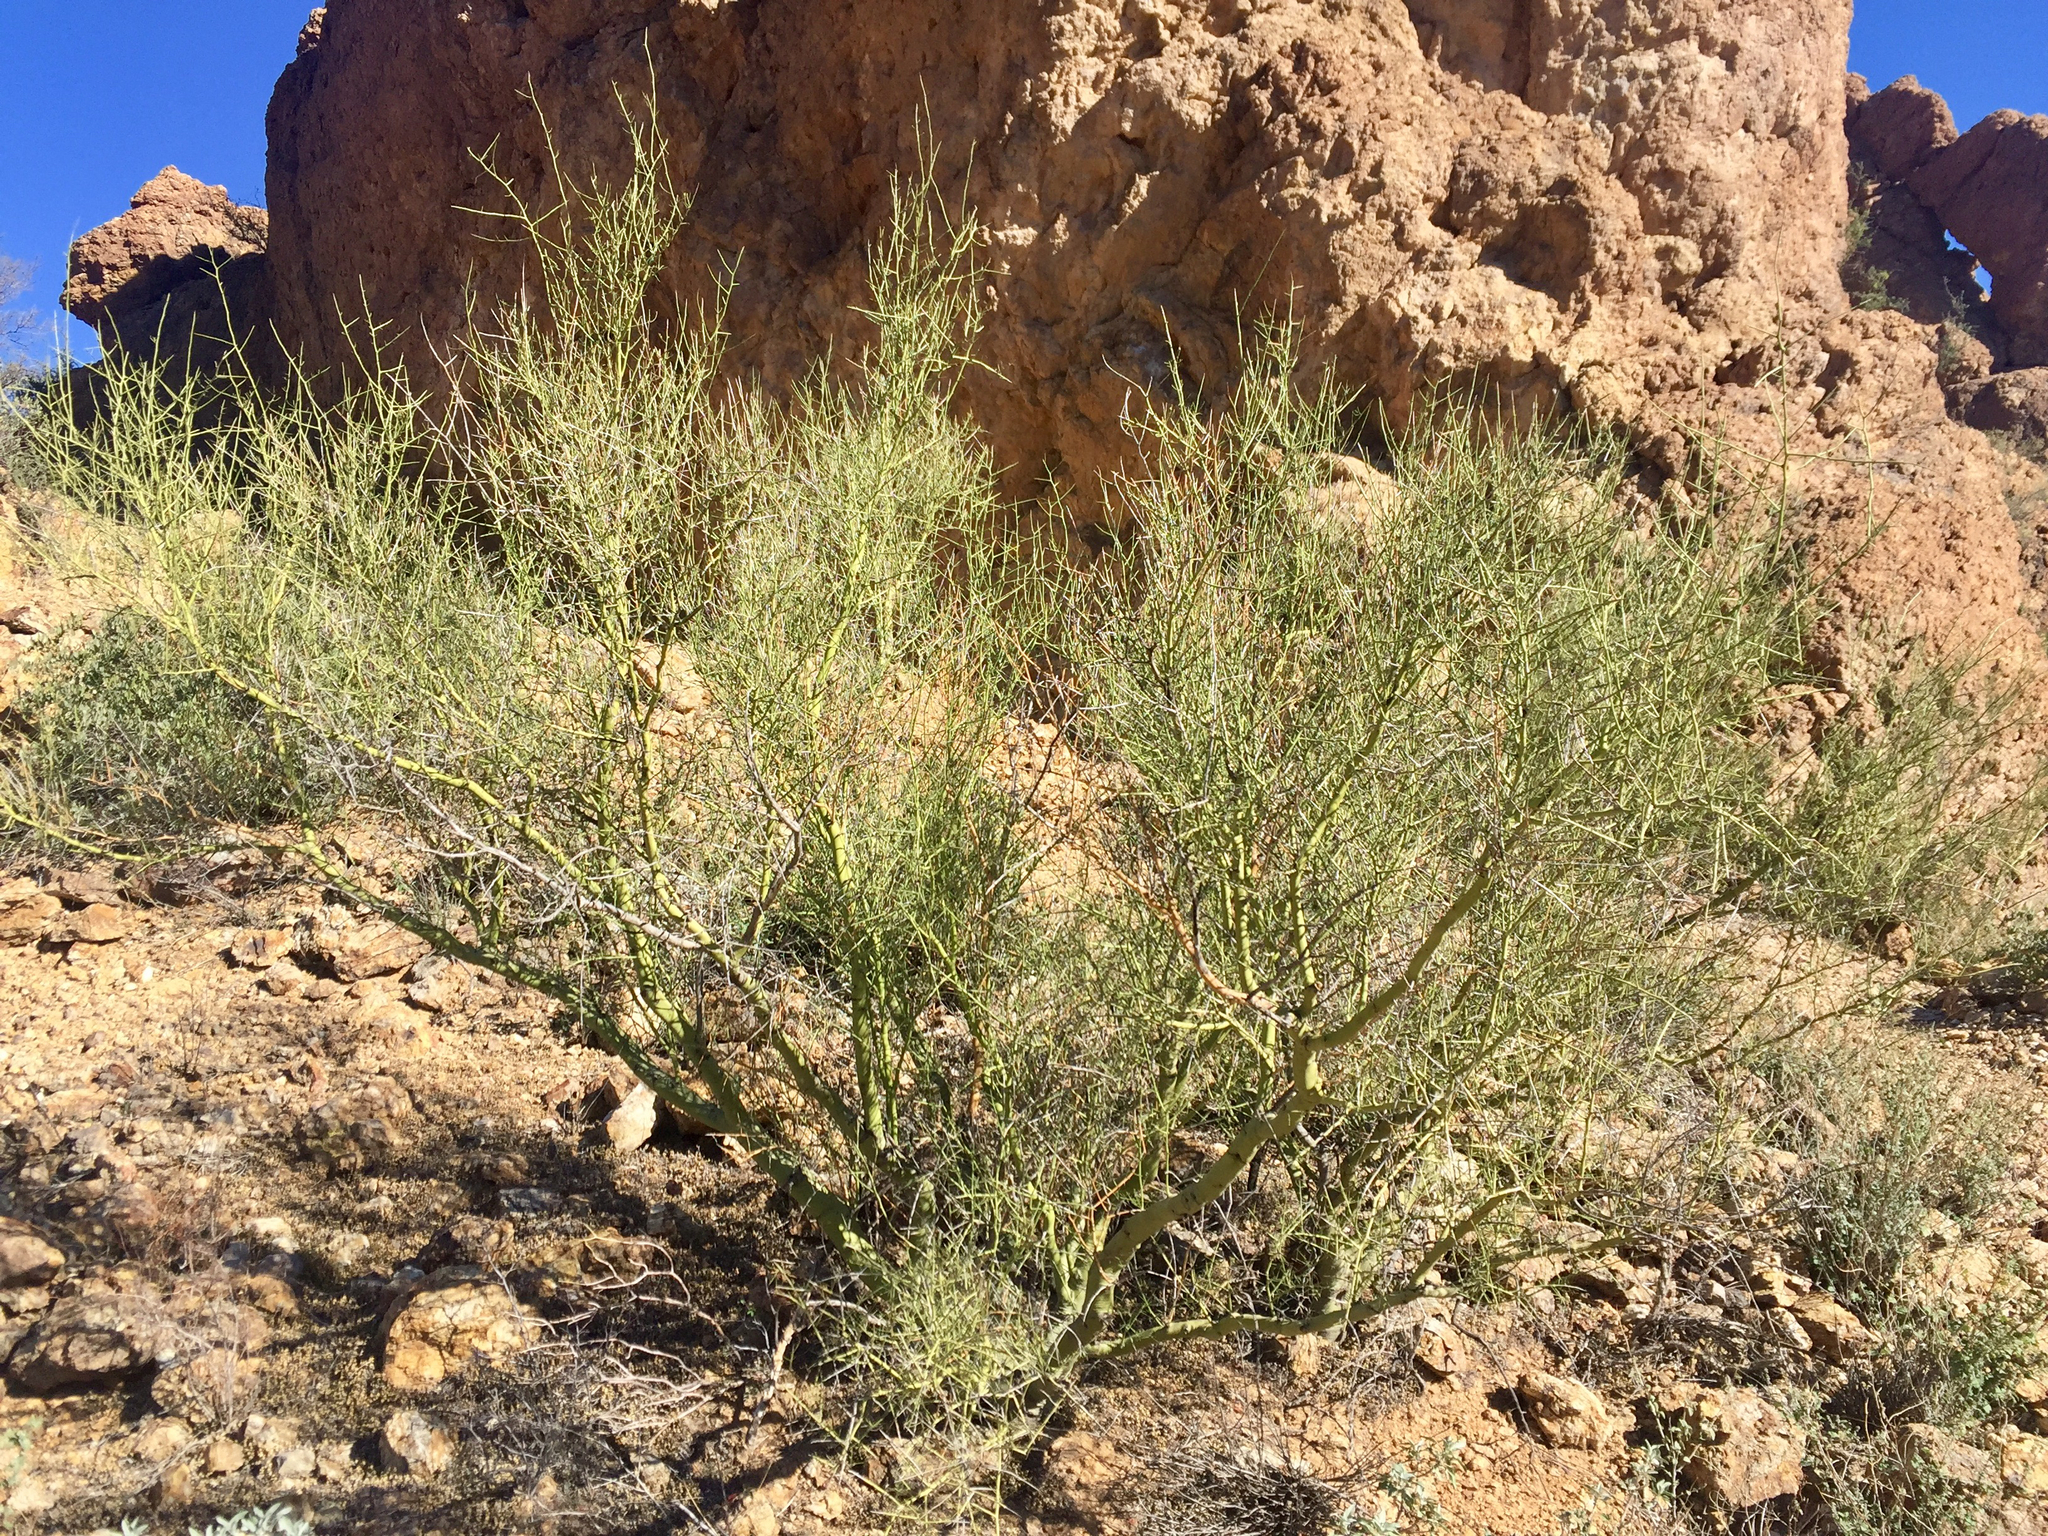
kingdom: Plantae
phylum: Tracheophyta
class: Magnoliopsida
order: Fabales
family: Fabaceae
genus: Parkinsonia
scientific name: Parkinsonia microphylla
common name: Yellow paloverde
